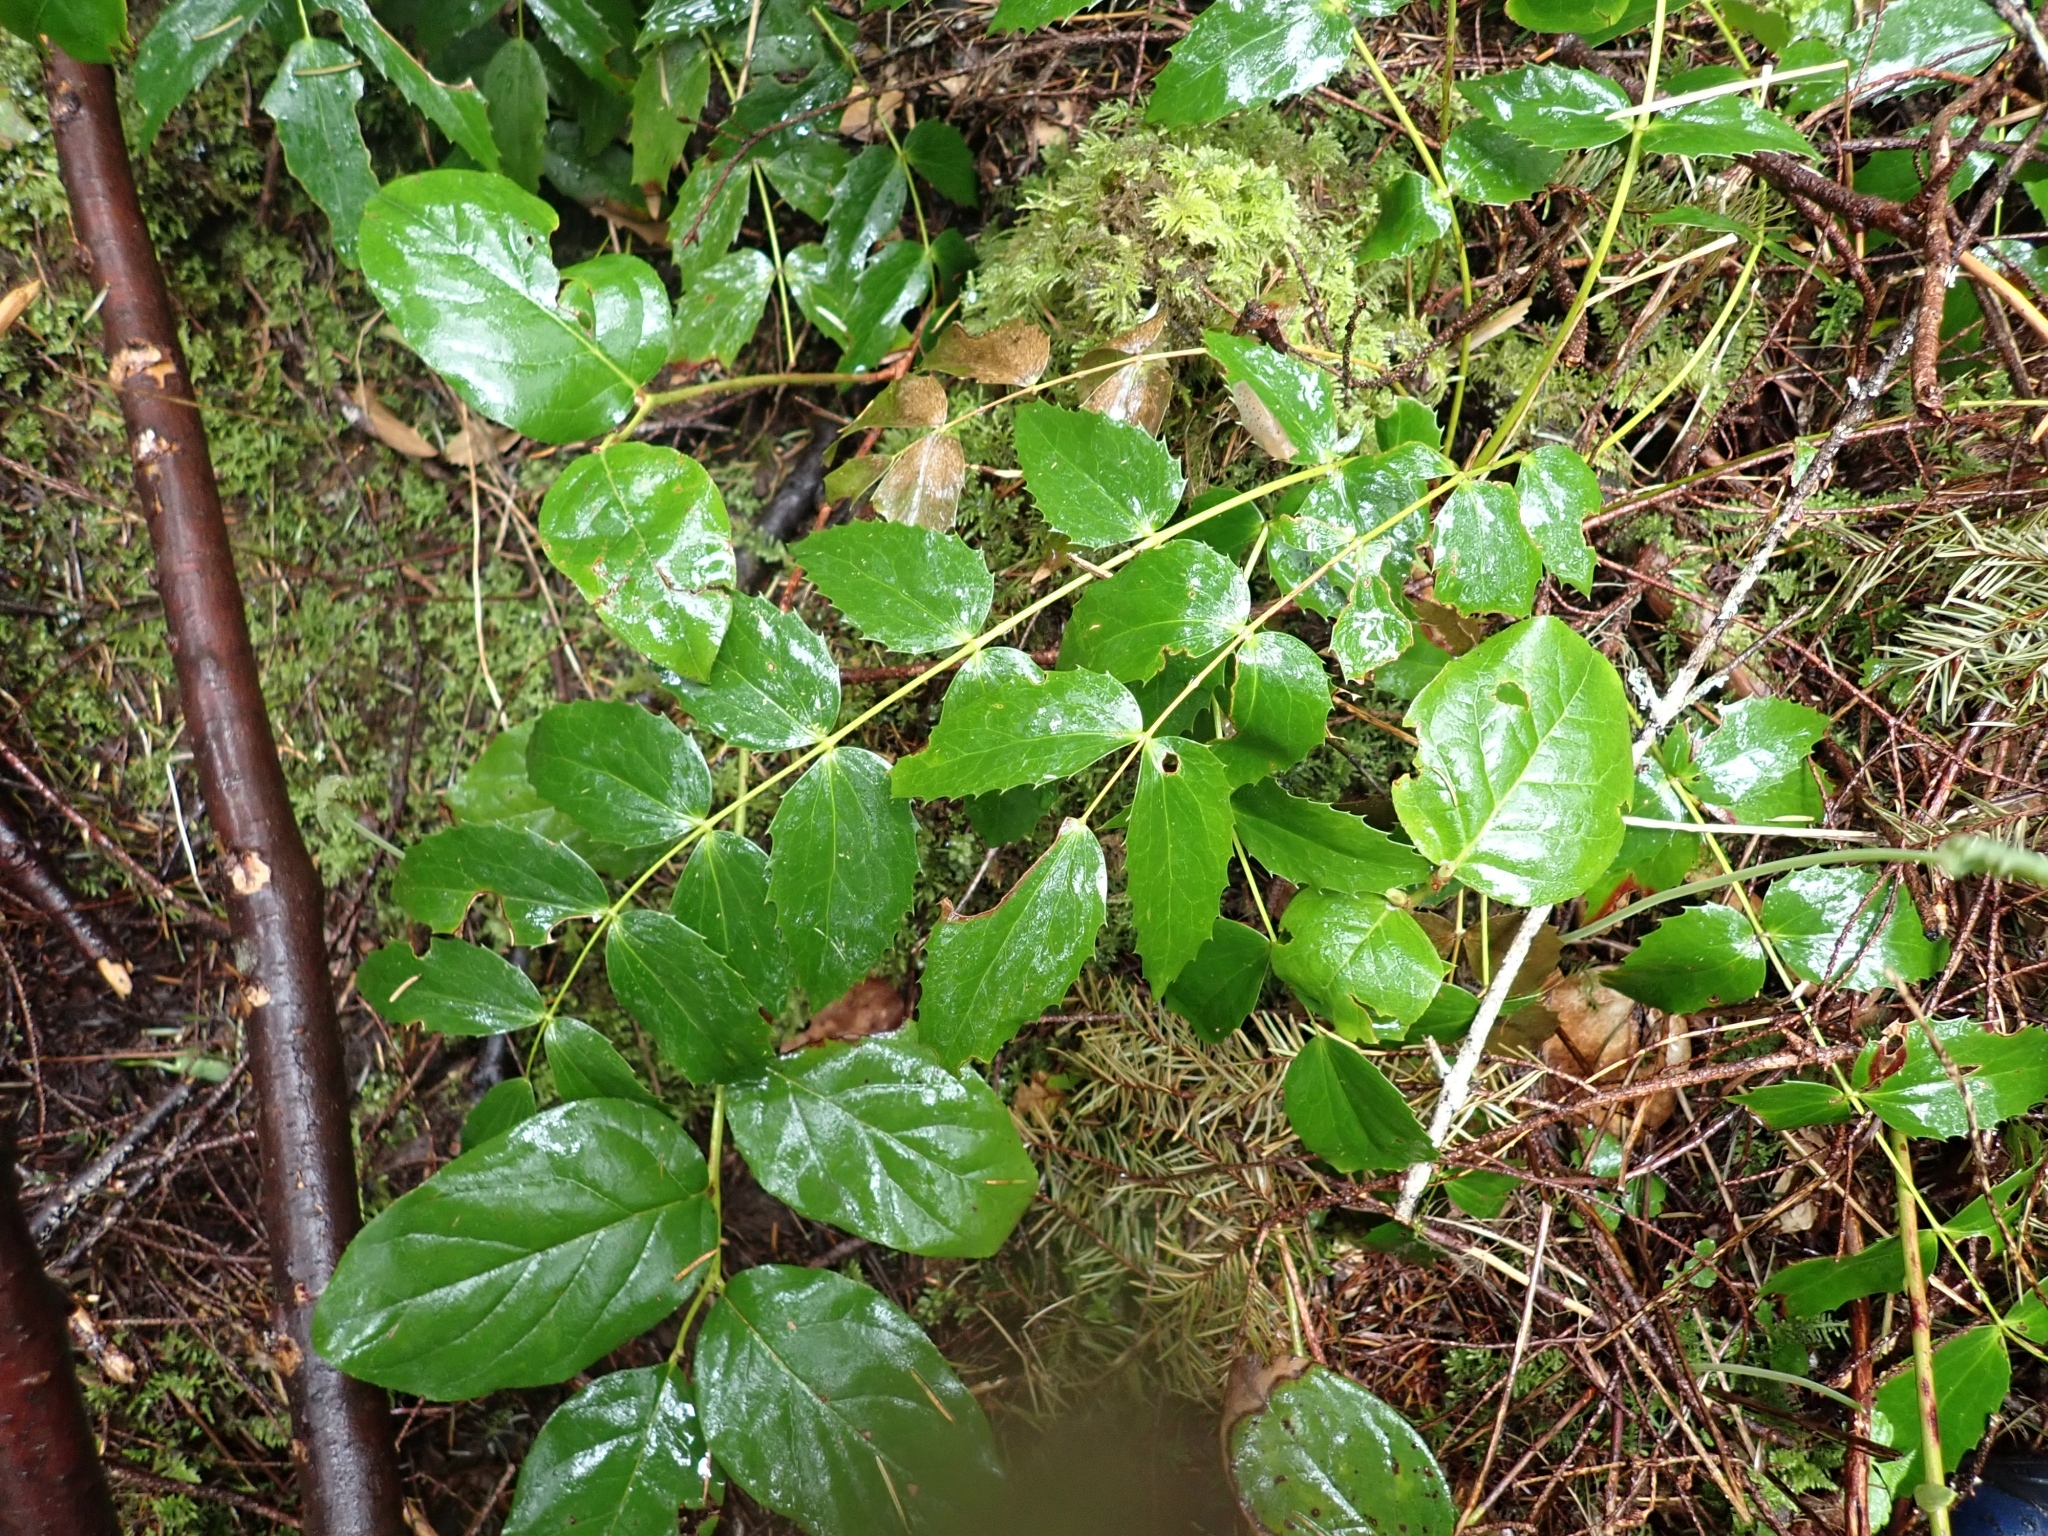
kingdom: Plantae
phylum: Tracheophyta
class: Magnoliopsida
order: Ranunculales
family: Berberidaceae
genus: Mahonia
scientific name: Mahonia nervosa
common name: Cascade oregon-grape
